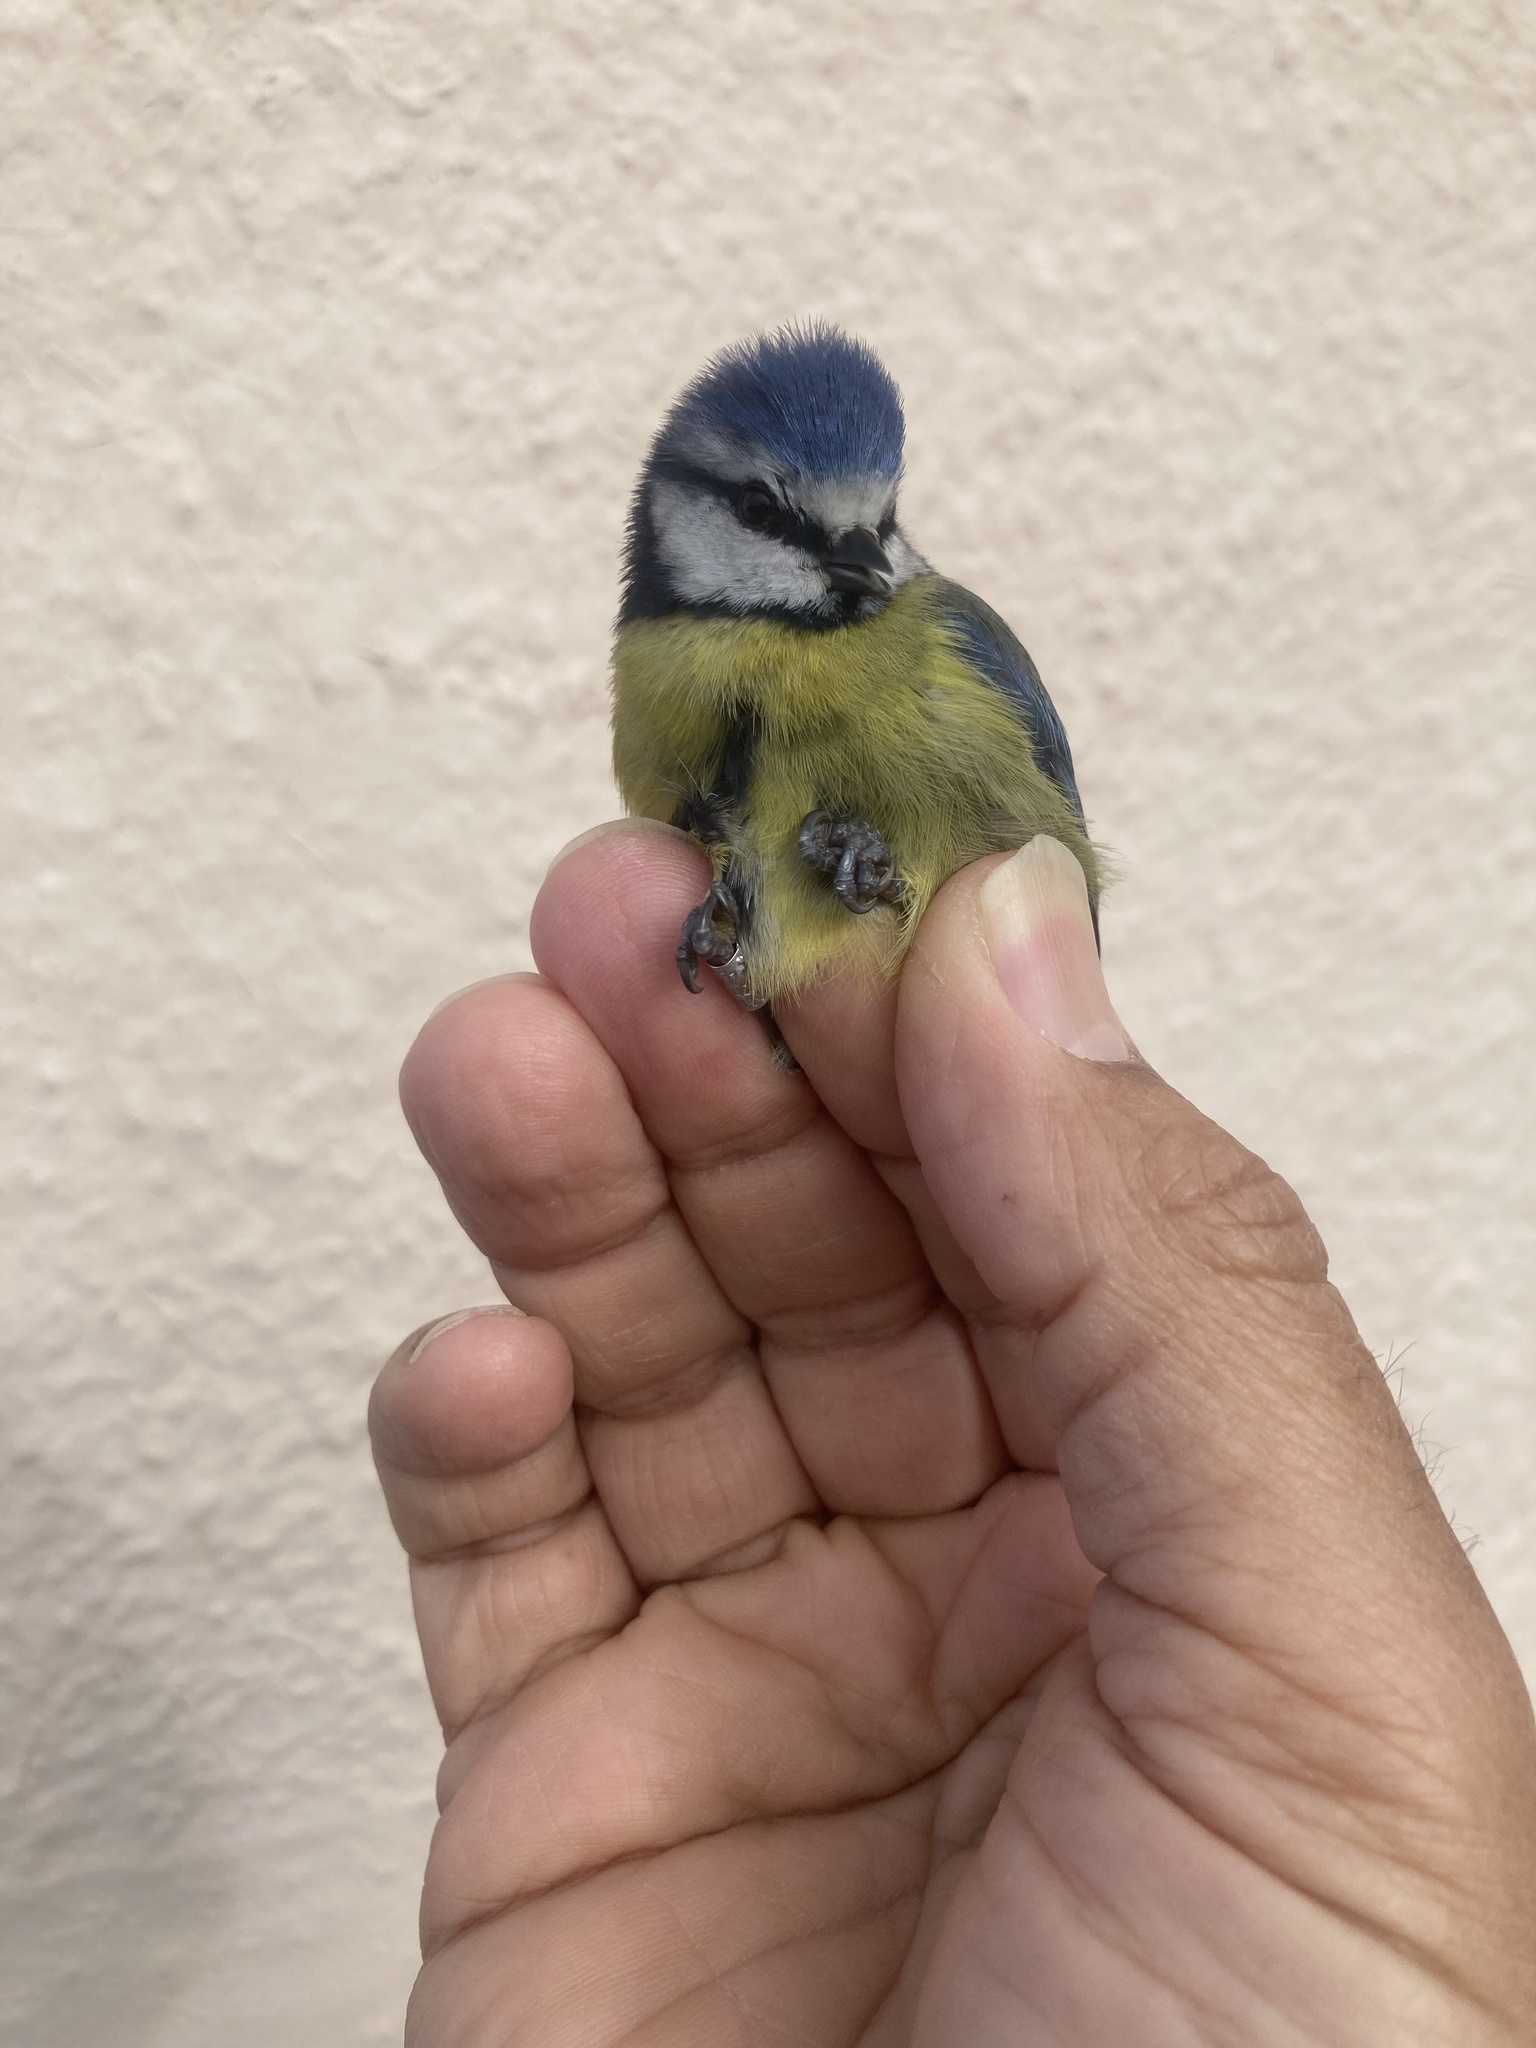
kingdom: Animalia
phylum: Chordata
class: Aves
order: Passeriformes
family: Paridae
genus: Cyanistes
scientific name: Cyanistes caeruleus
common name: Eurasian blue tit
